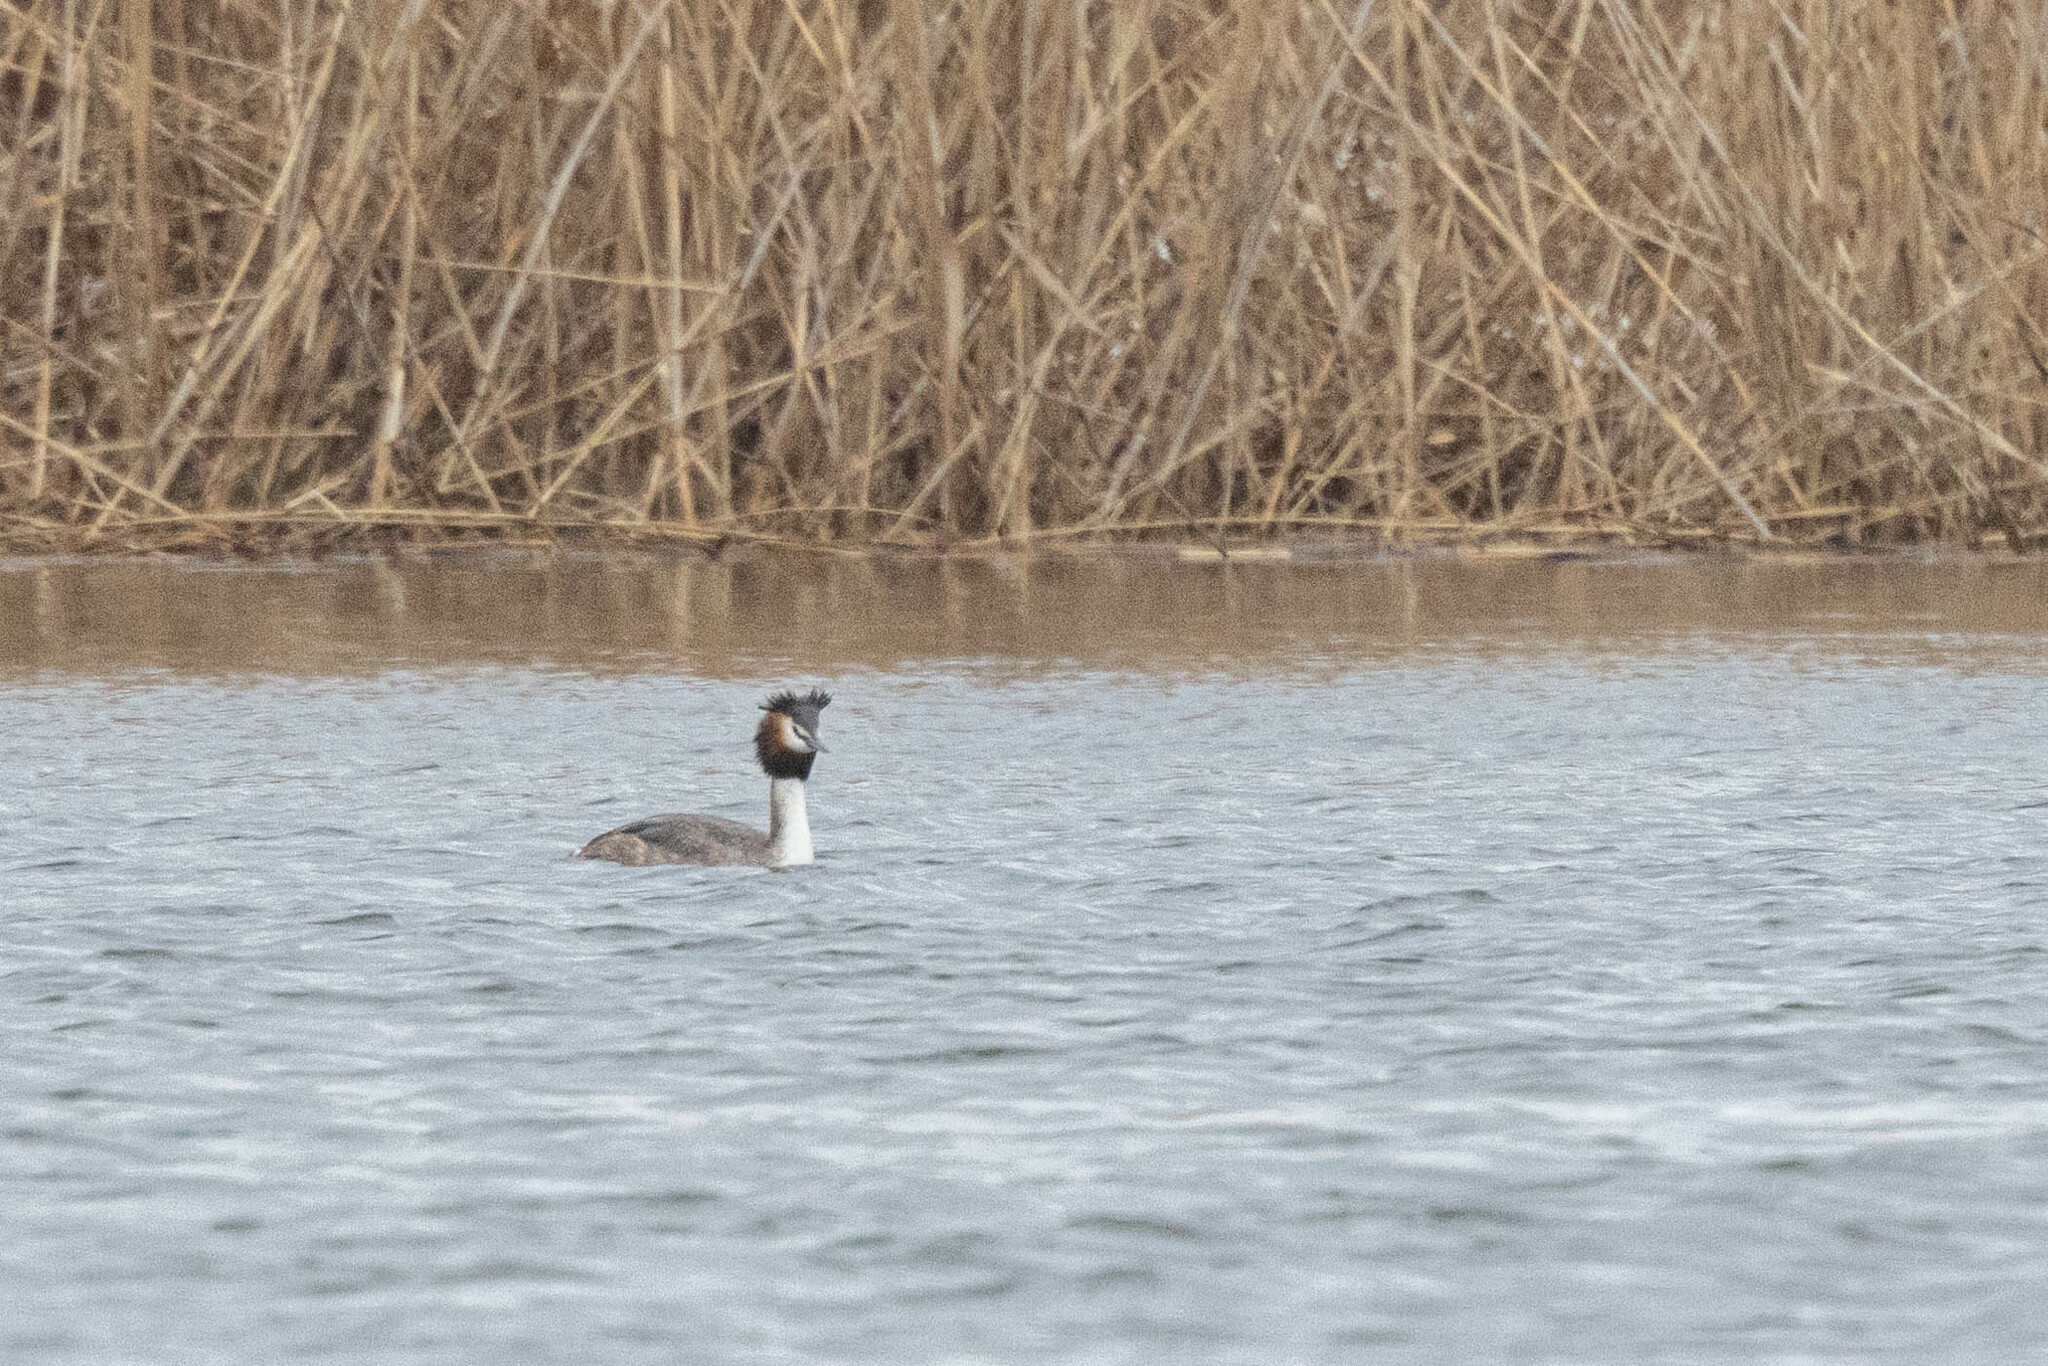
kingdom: Animalia
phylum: Chordata
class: Aves
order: Podicipediformes
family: Podicipedidae
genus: Podiceps
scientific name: Podiceps cristatus
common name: Great crested grebe
